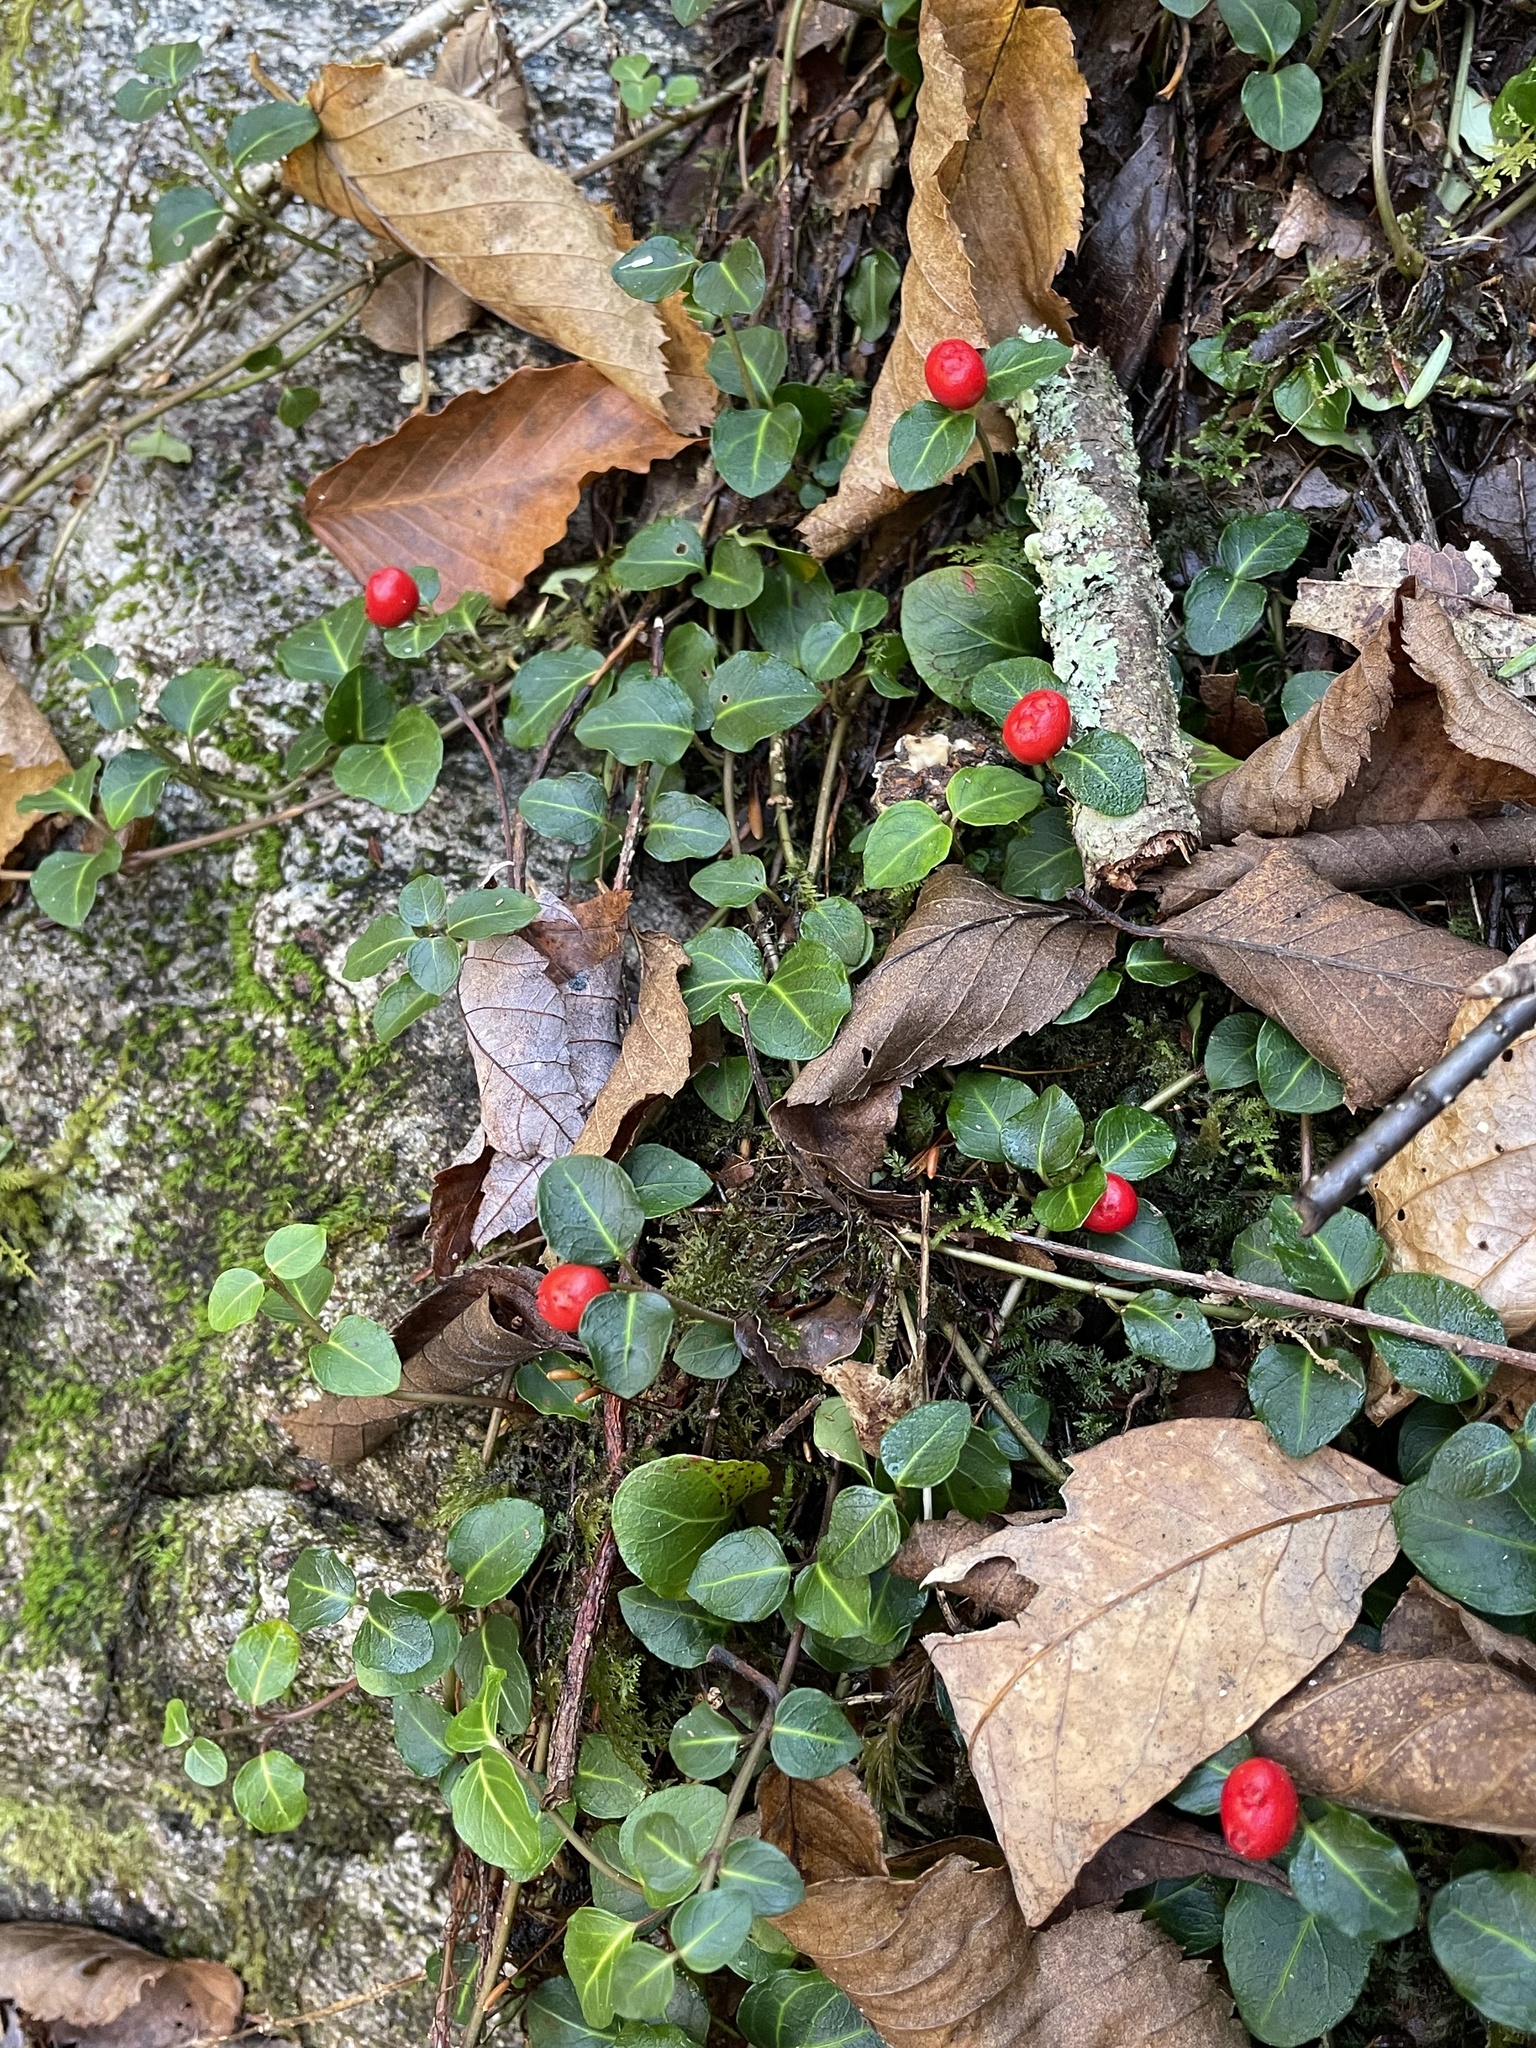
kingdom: Plantae
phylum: Tracheophyta
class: Magnoliopsida
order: Gentianales
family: Rubiaceae
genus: Mitchella
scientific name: Mitchella repens
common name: Partridge-berry
